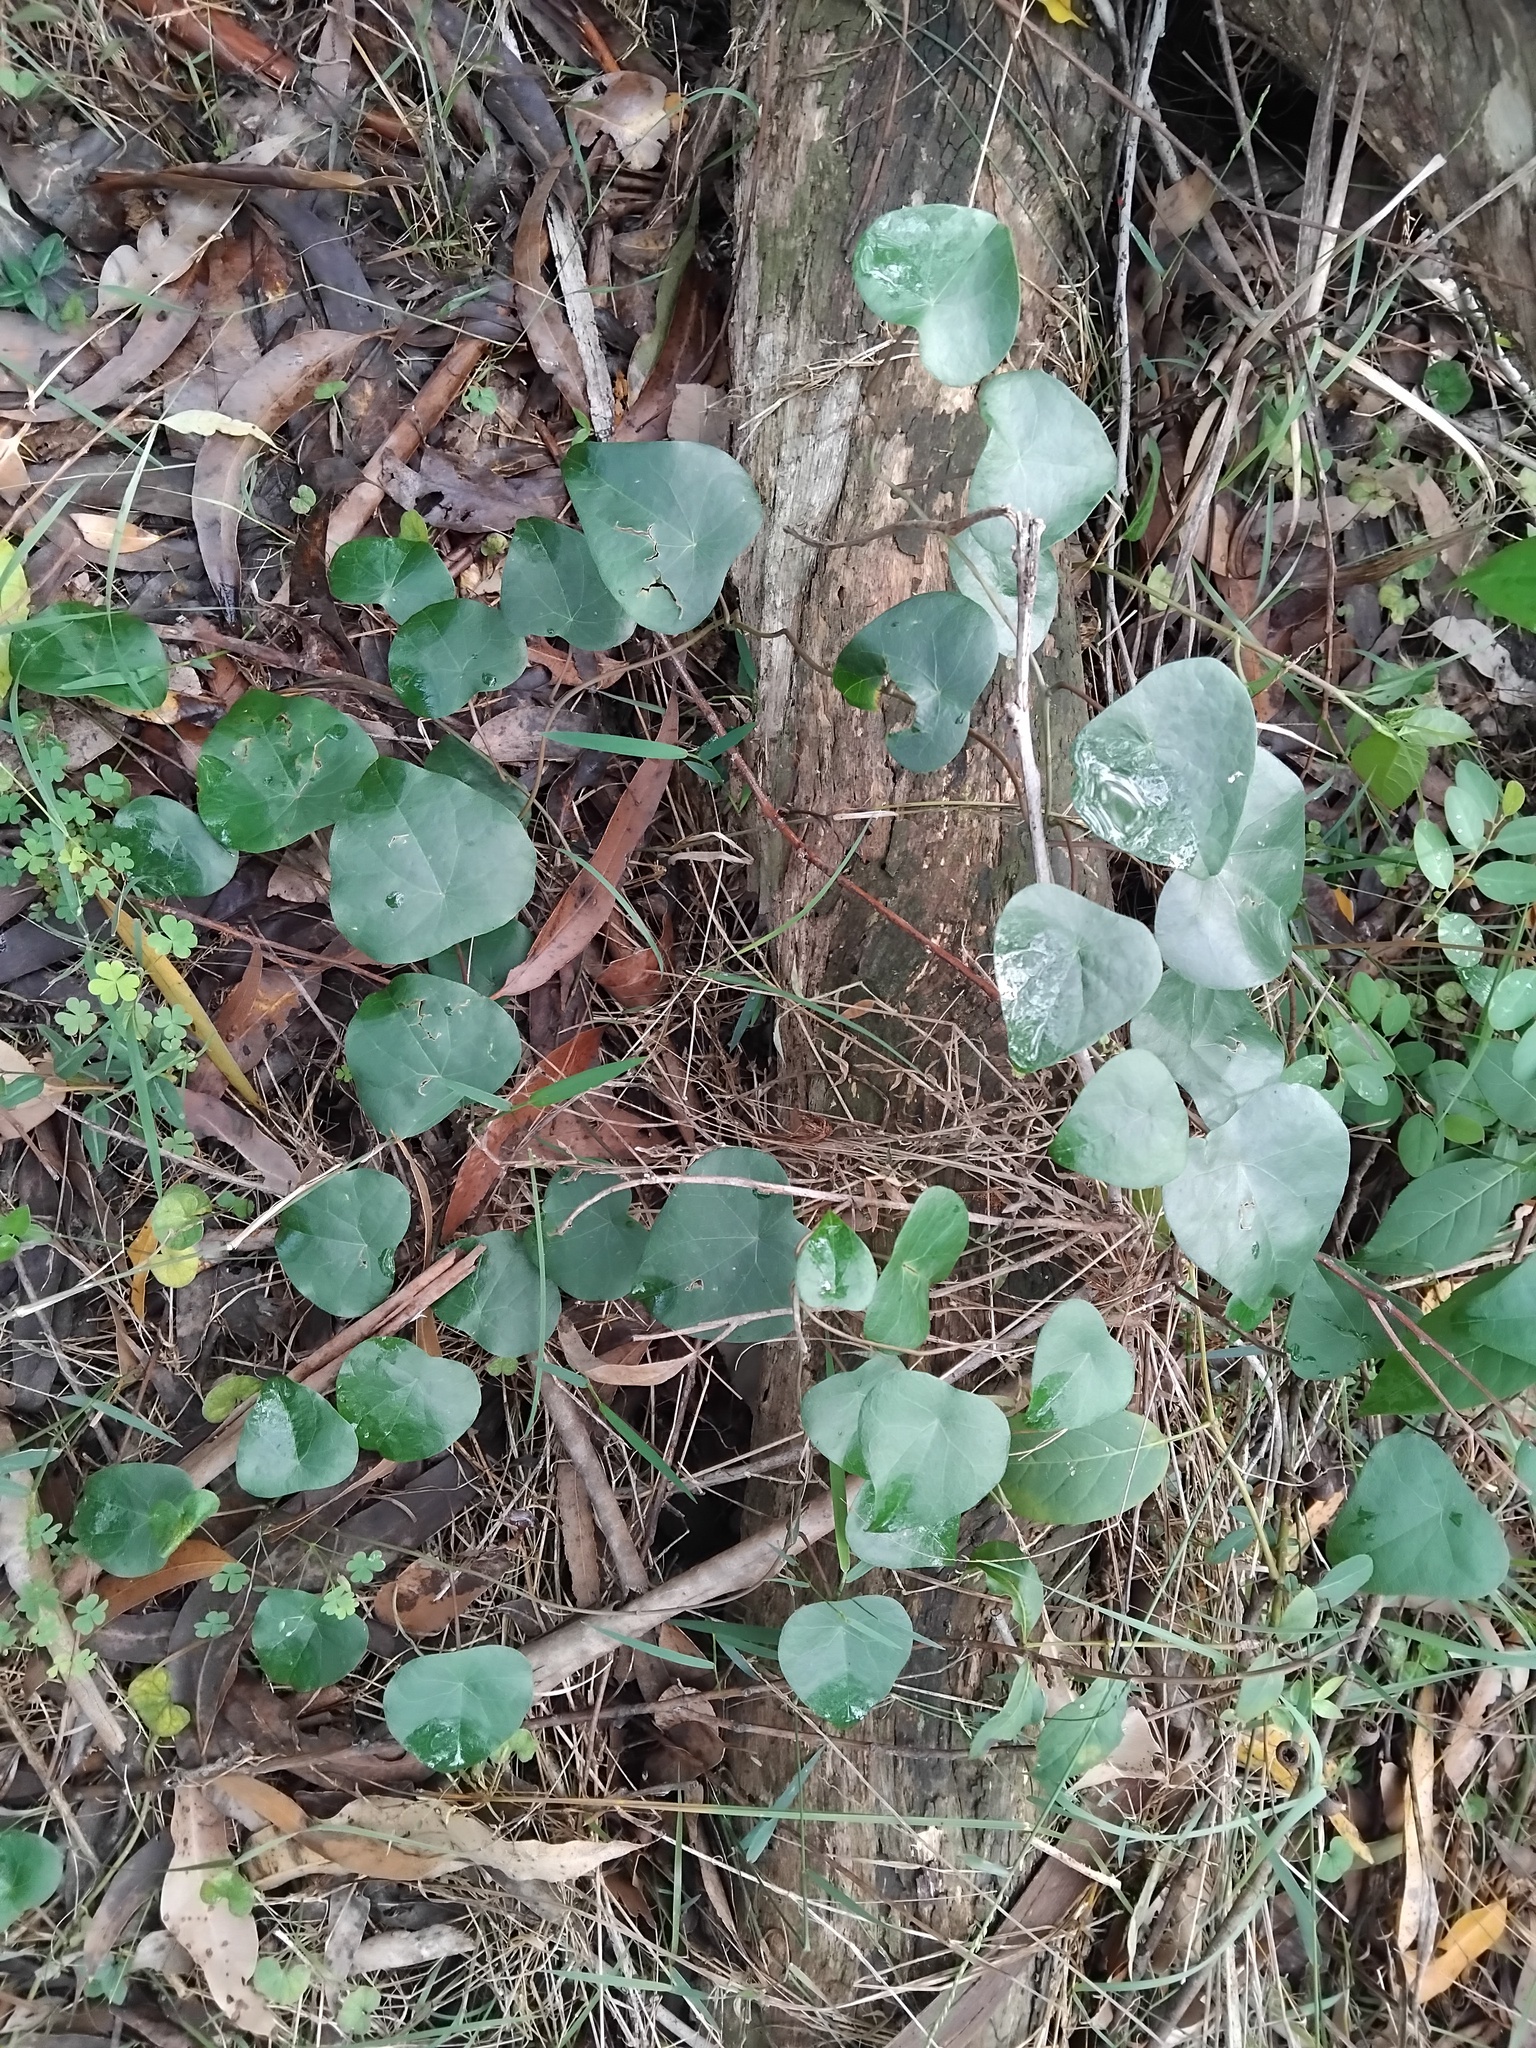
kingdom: Plantae
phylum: Tracheophyta
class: Magnoliopsida
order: Ranunculales
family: Menispermaceae
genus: Stephania
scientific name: Stephania japonica
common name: Snake vine
